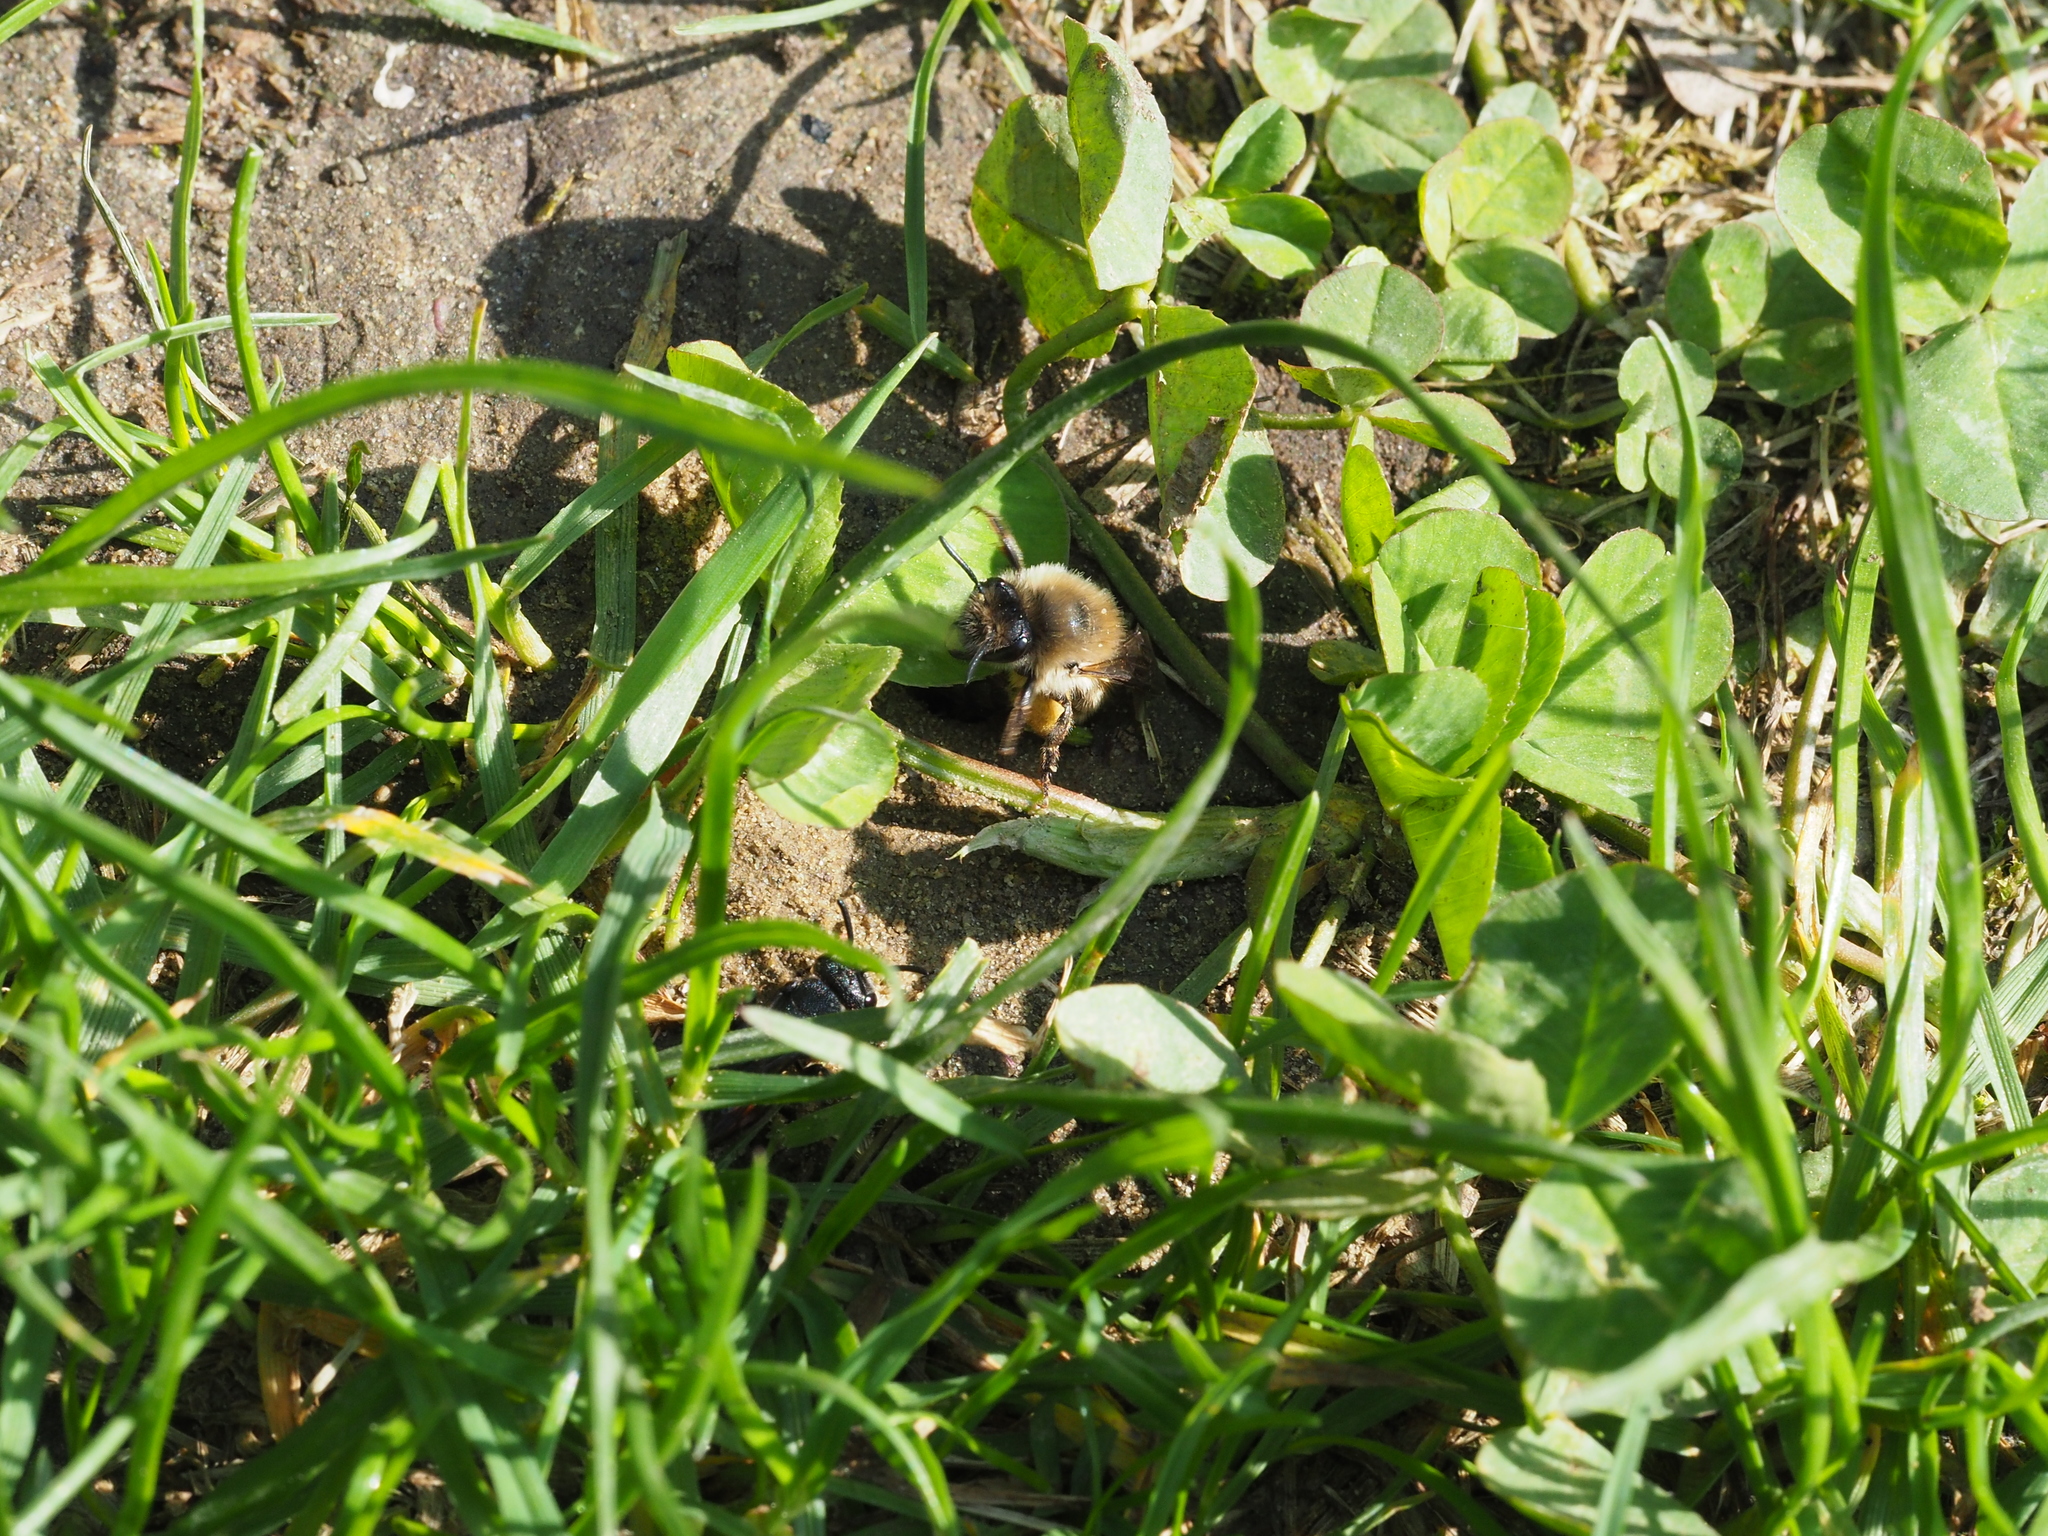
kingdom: Animalia
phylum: Arthropoda
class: Insecta
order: Hymenoptera
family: Halictidae
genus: Sphecodes
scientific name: Sphecodes albilabris
